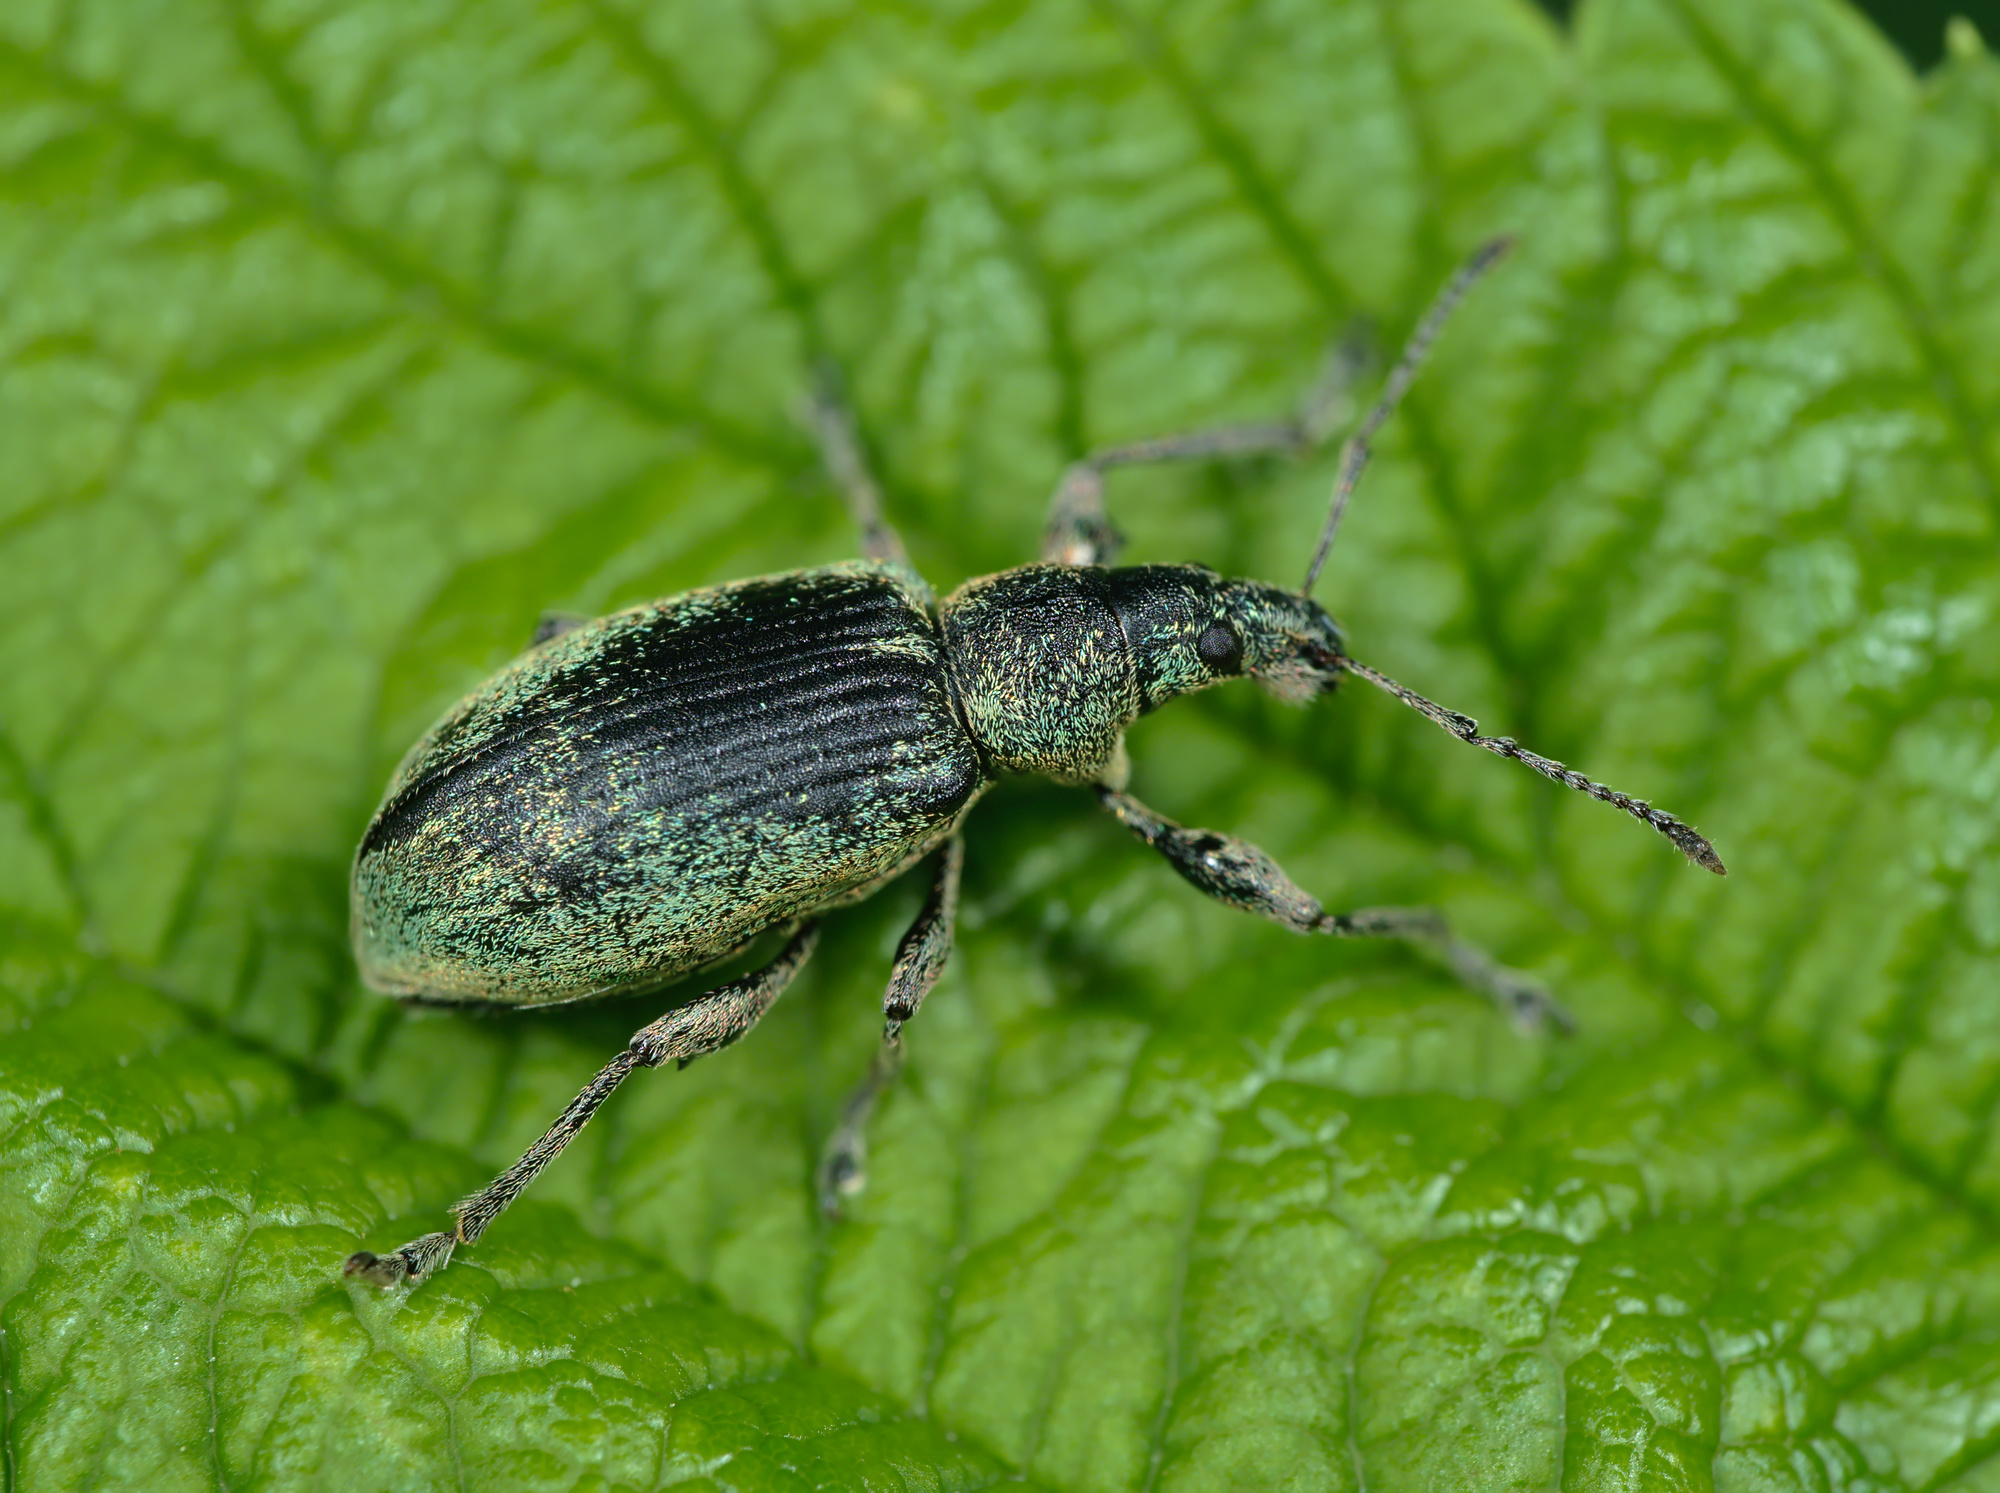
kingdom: Animalia
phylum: Arthropoda
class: Insecta
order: Coleoptera
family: Curculionidae
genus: Phyllobius
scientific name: Phyllobius pomaceus
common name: Green nettle weevil
